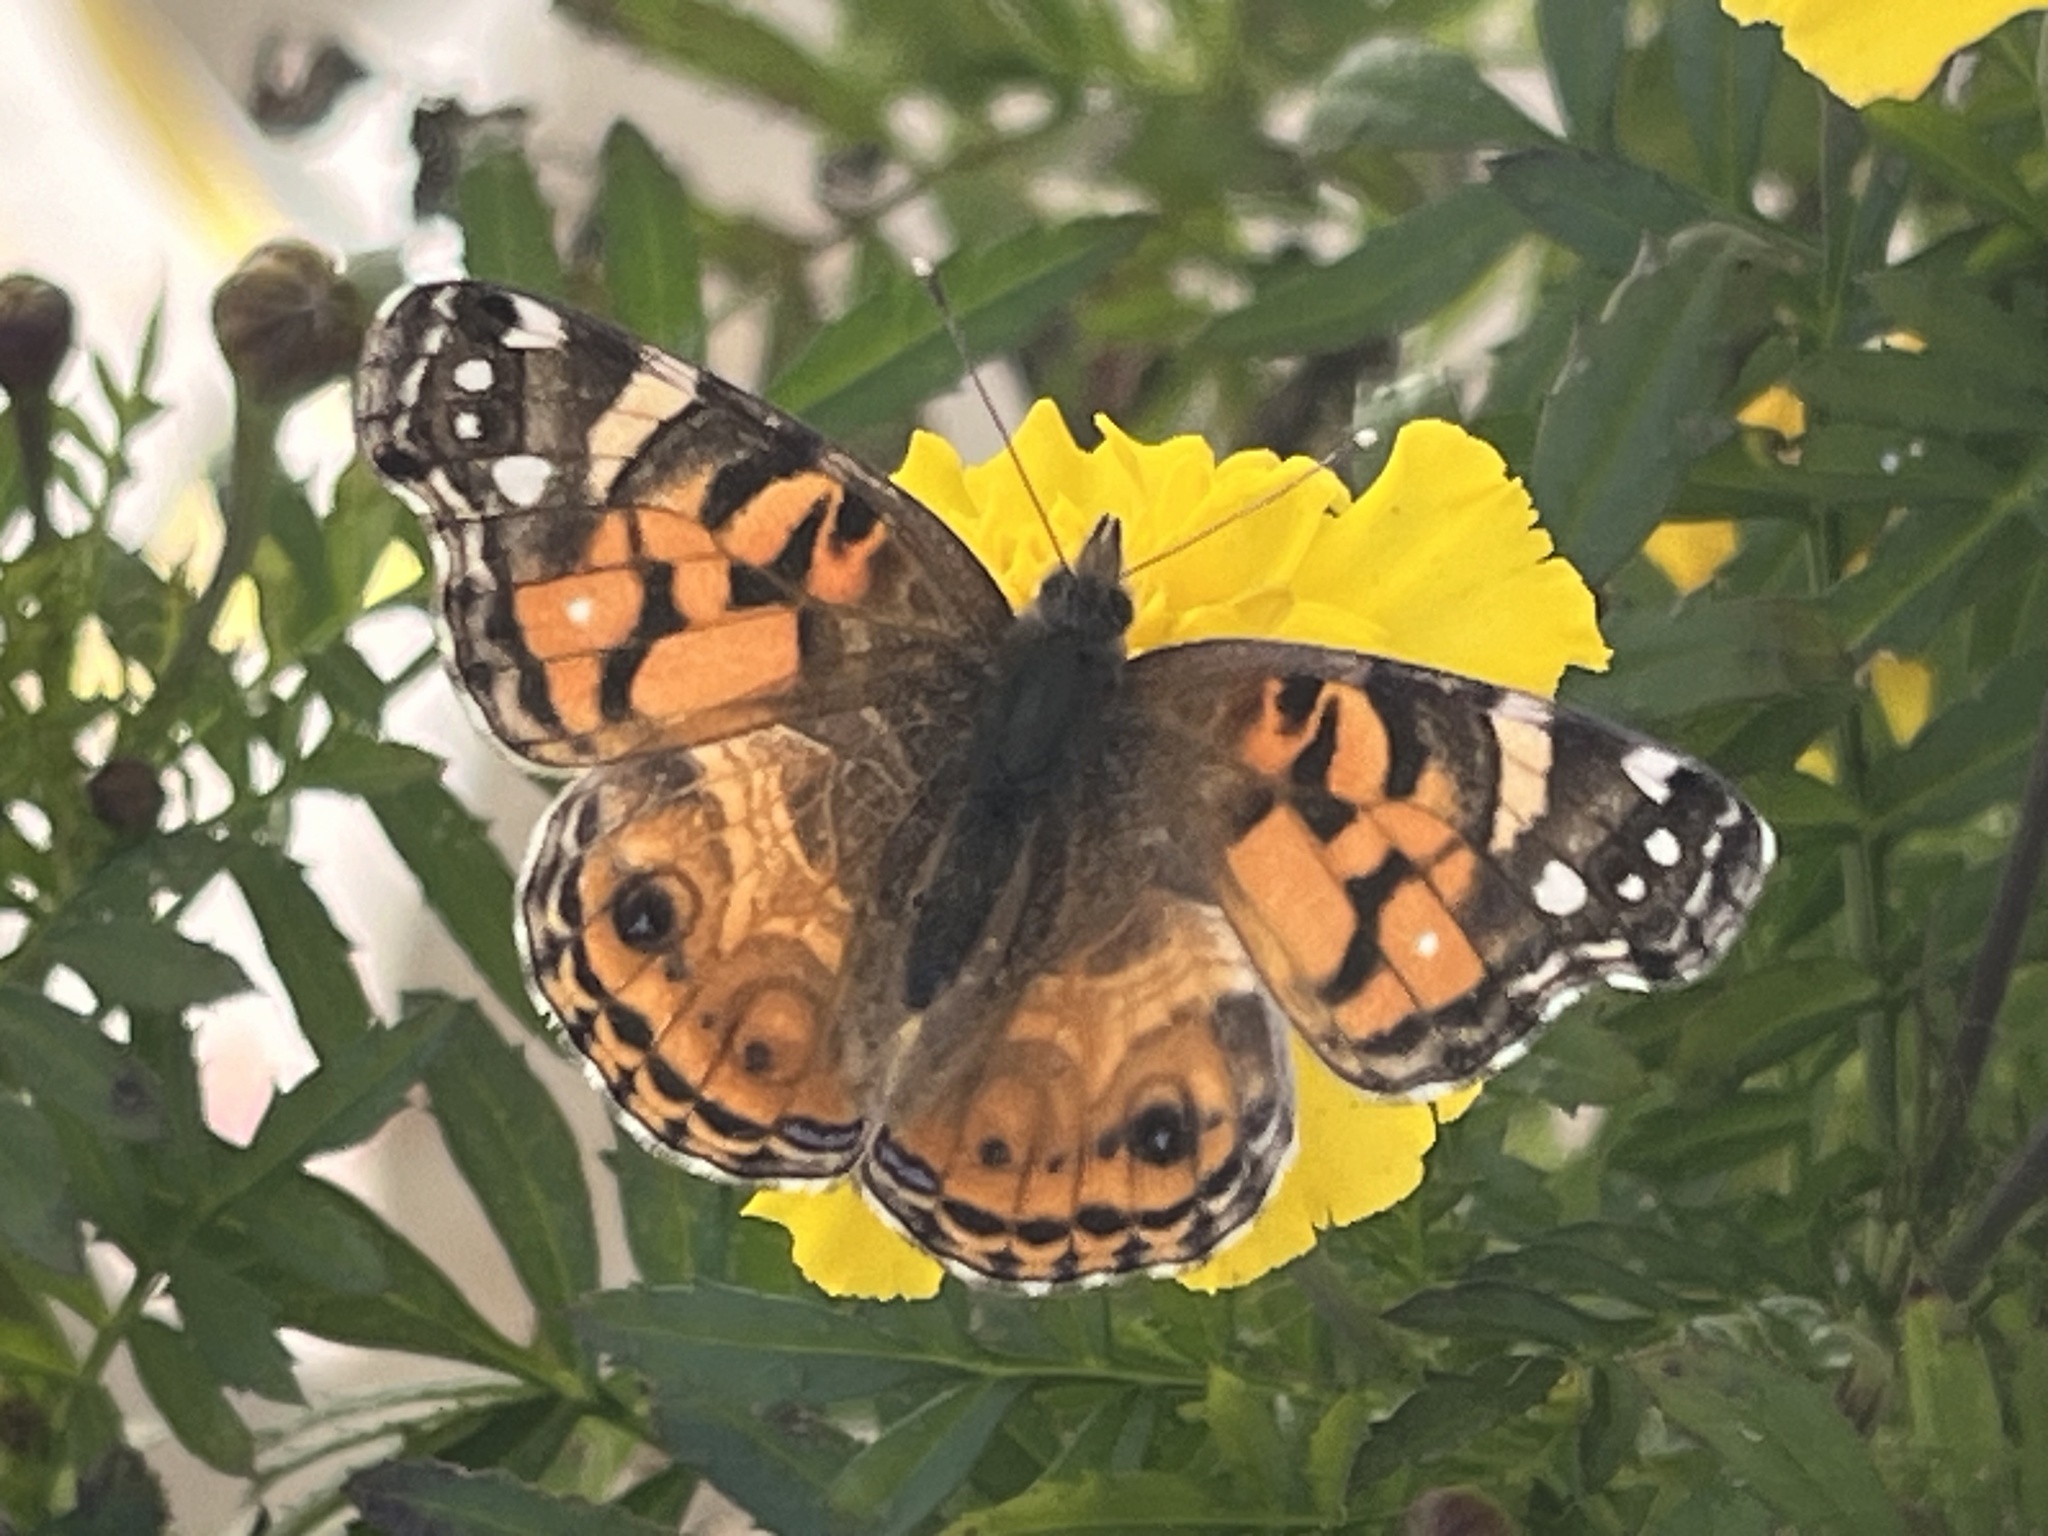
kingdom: Animalia
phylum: Arthropoda
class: Insecta
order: Lepidoptera
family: Nymphalidae
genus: Vanessa
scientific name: Vanessa virginiensis
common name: American lady
